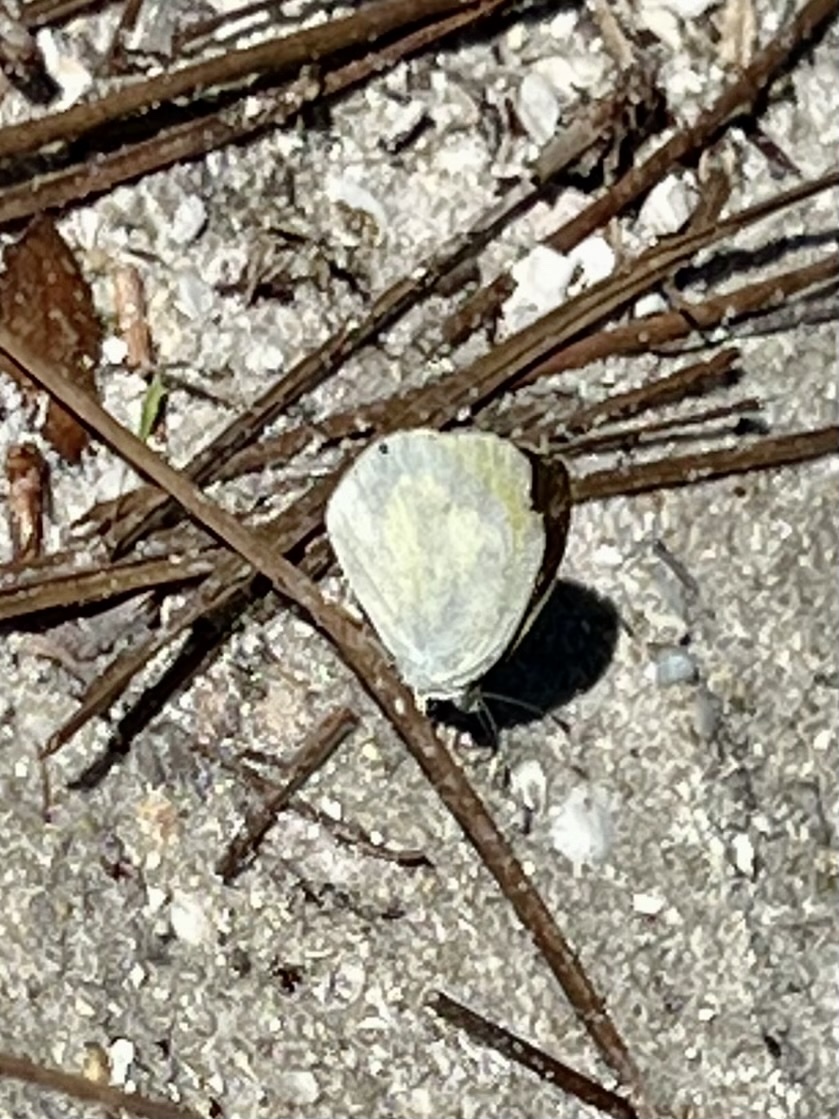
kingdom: Animalia
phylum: Arthropoda
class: Insecta
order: Lepidoptera
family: Pieridae
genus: Eurema
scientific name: Eurema daira
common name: Barred sulphur
